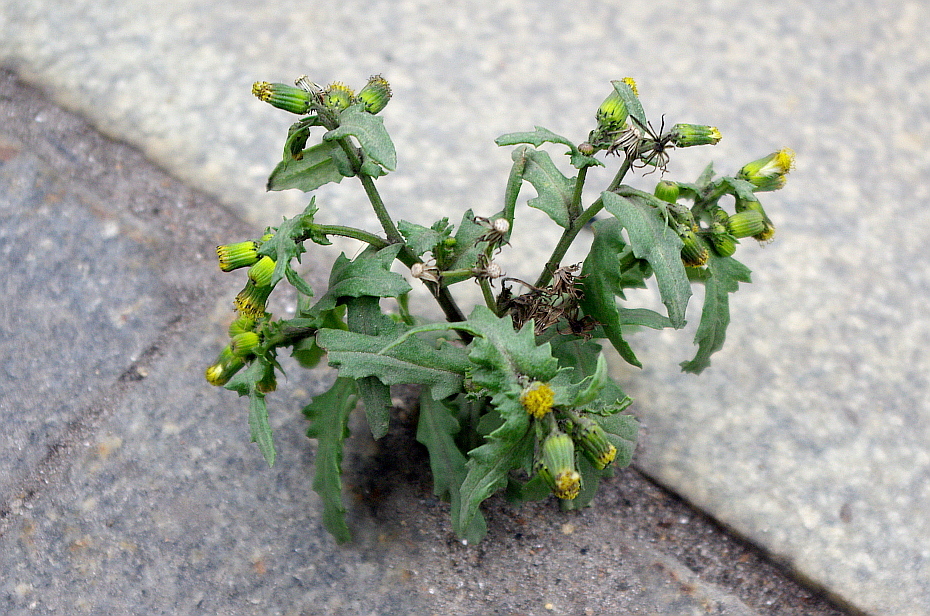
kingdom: Plantae
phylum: Tracheophyta
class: Magnoliopsida
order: Asterales
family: Asteraceae
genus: Senecio
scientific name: Senecio vulgaris
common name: Old-man-in-the-spring
